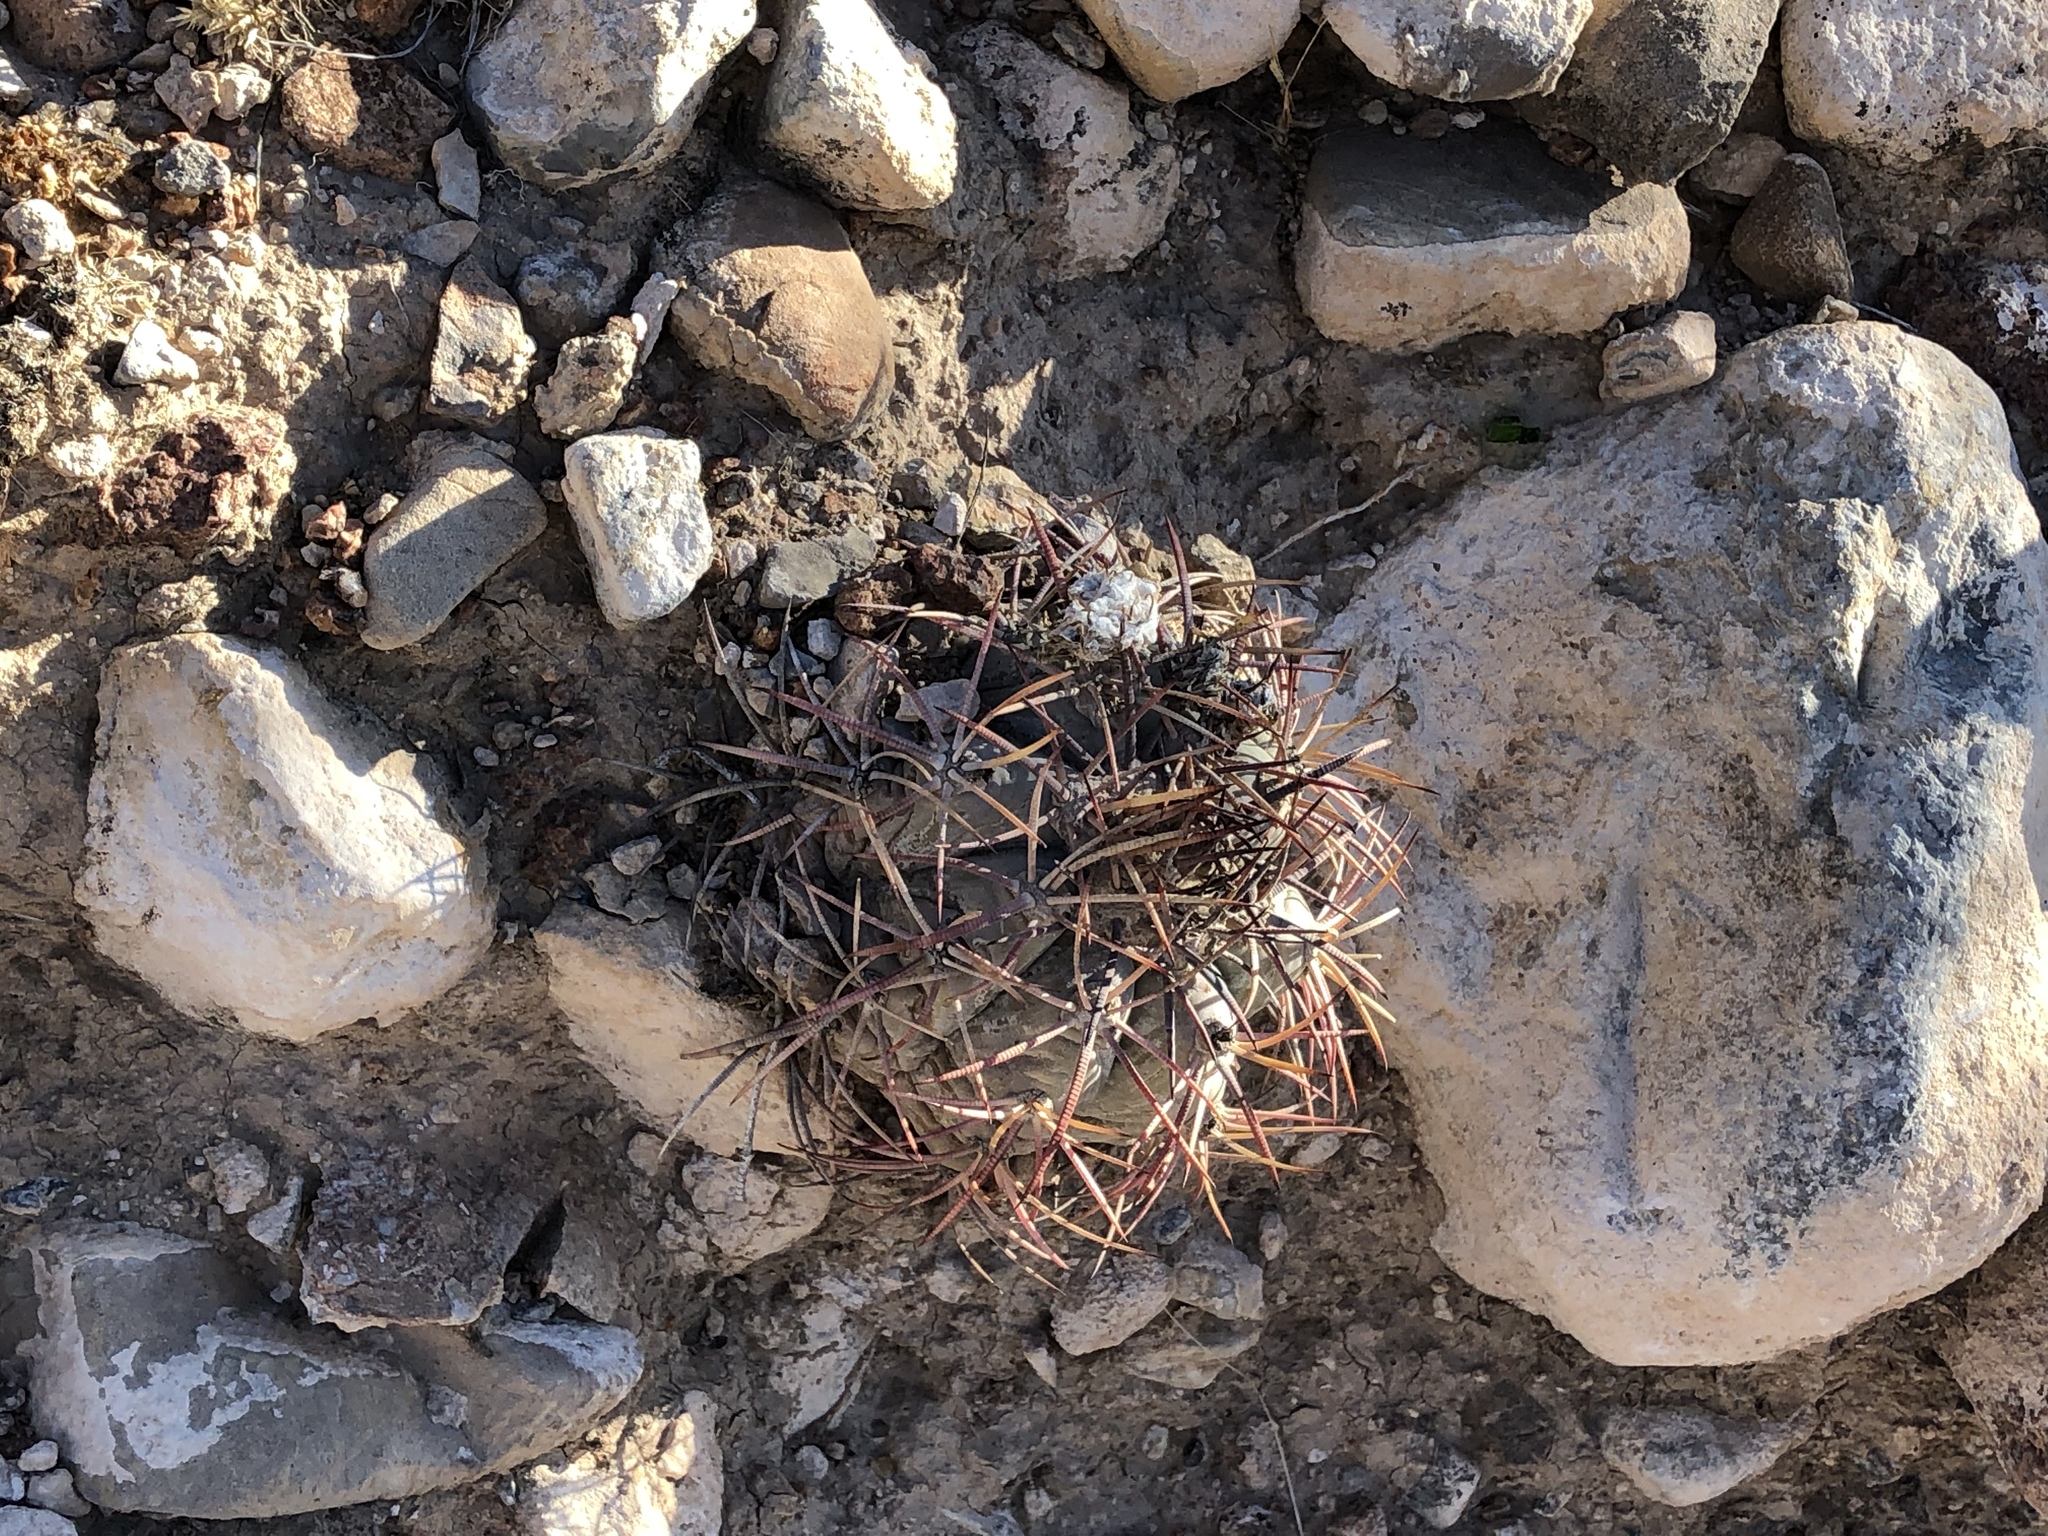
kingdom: Plantae
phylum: Tracheophyta
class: Magnoliopsida
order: Caryophyllales
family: Cactaceae
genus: Echinocactus
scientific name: Echinocactus horizonthalonius
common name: Devilshead
